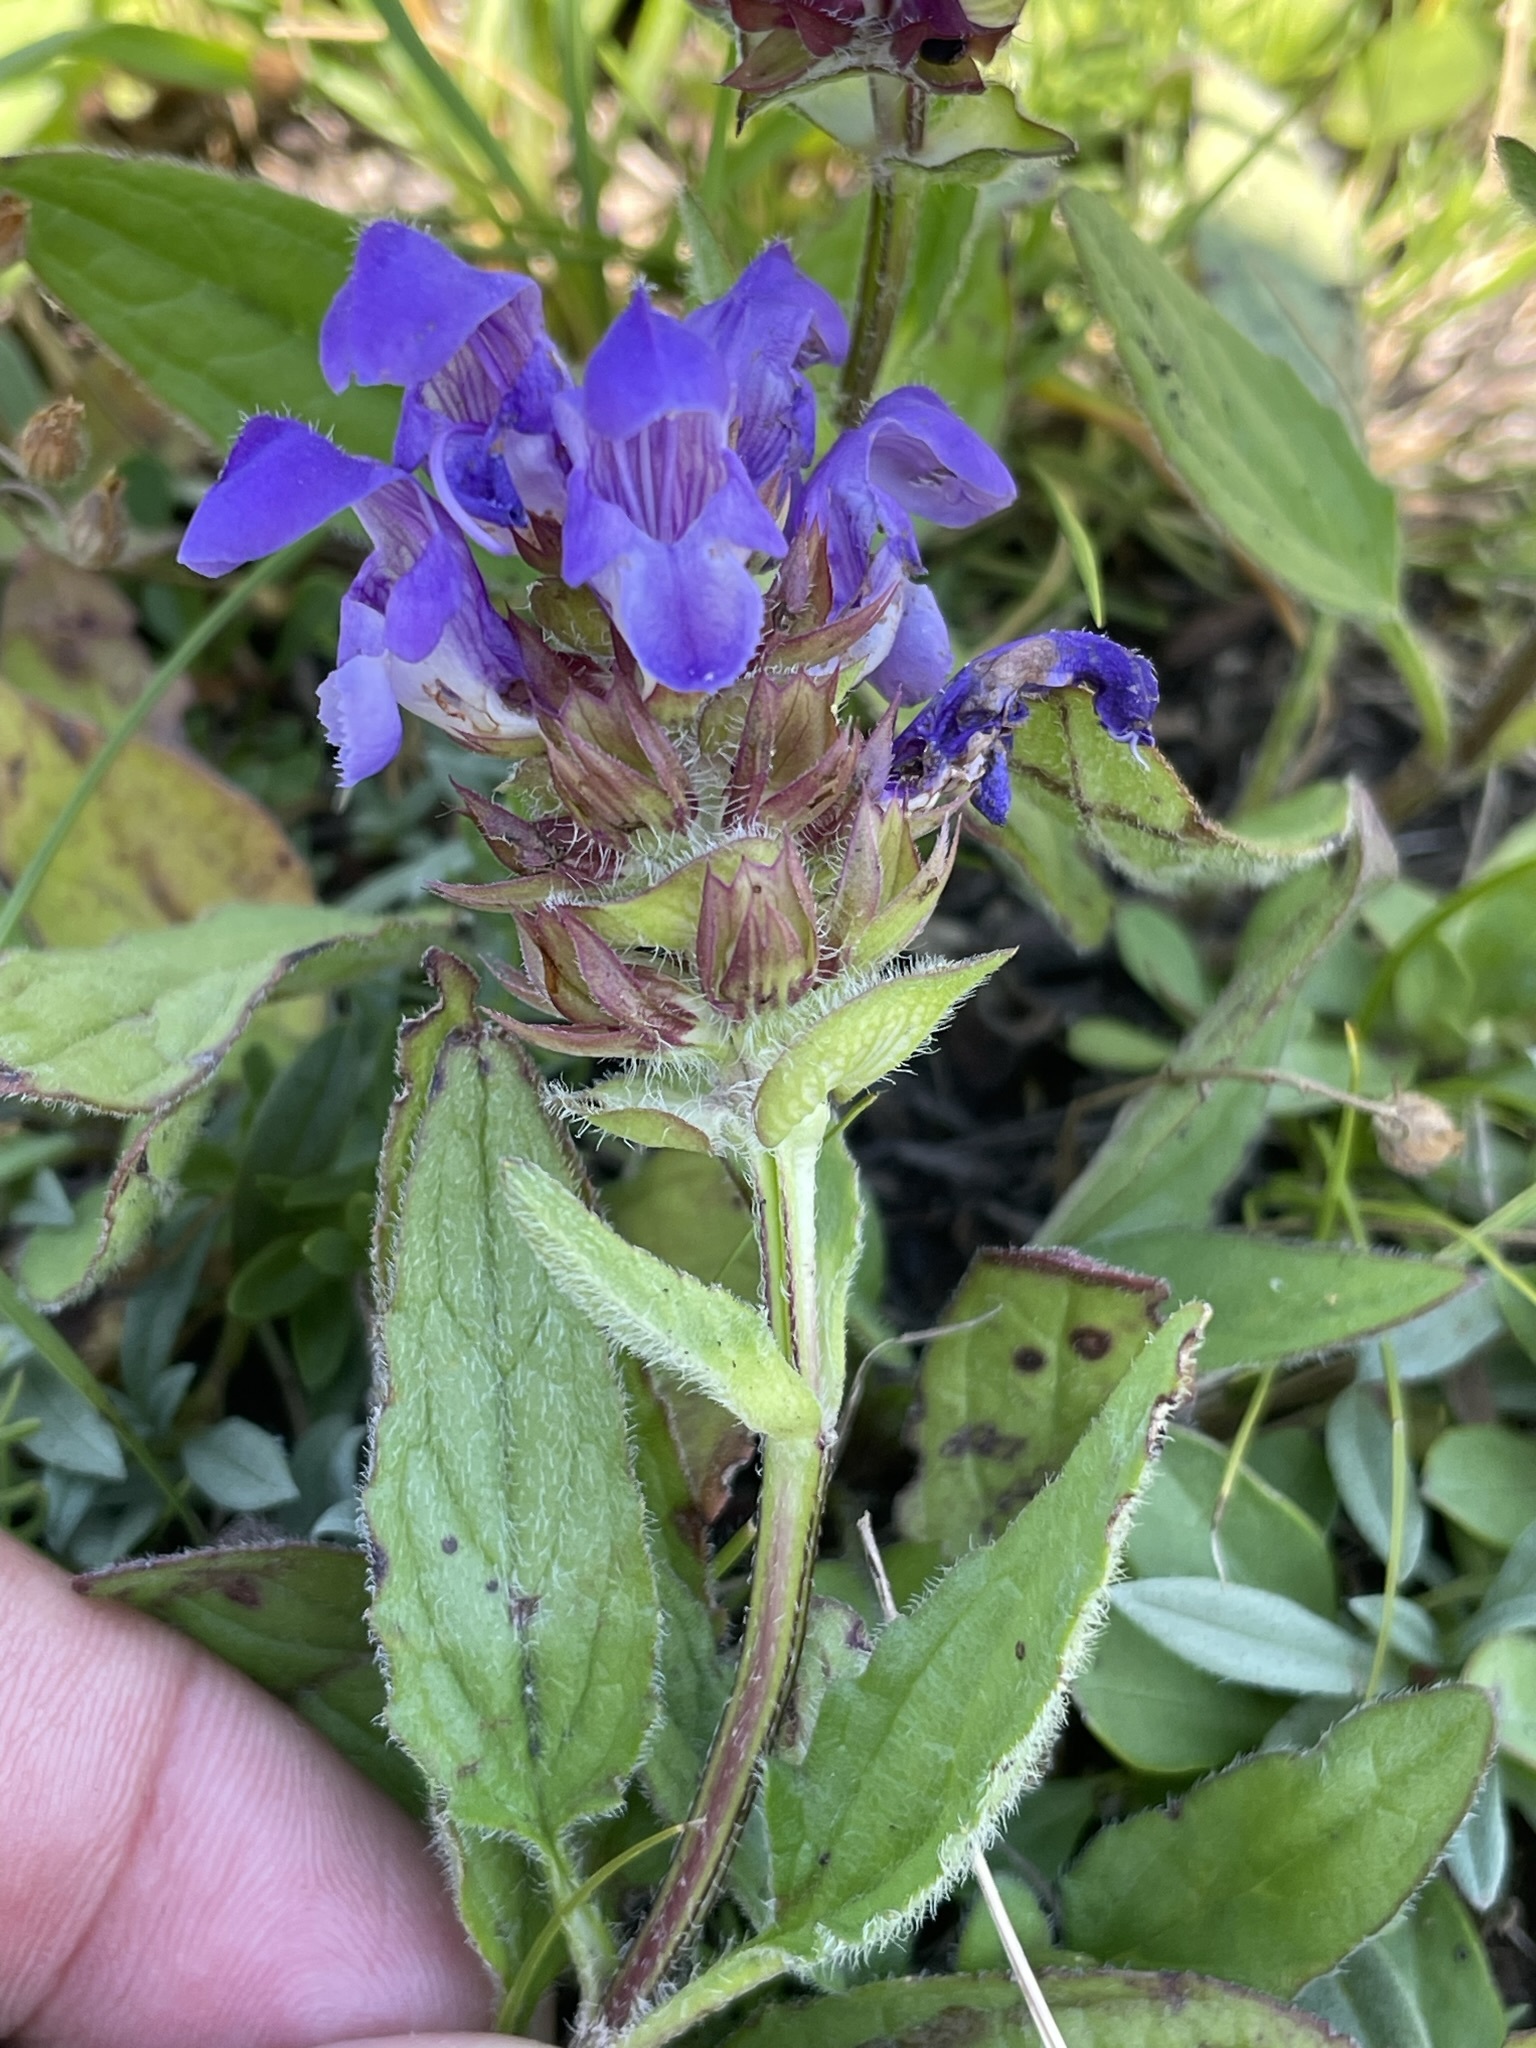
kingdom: Plantae
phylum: Tracheophyta
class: Magnoliopsida
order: Lamiales
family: Lamiaceae
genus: Prunella
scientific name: Prunella grandiflora
